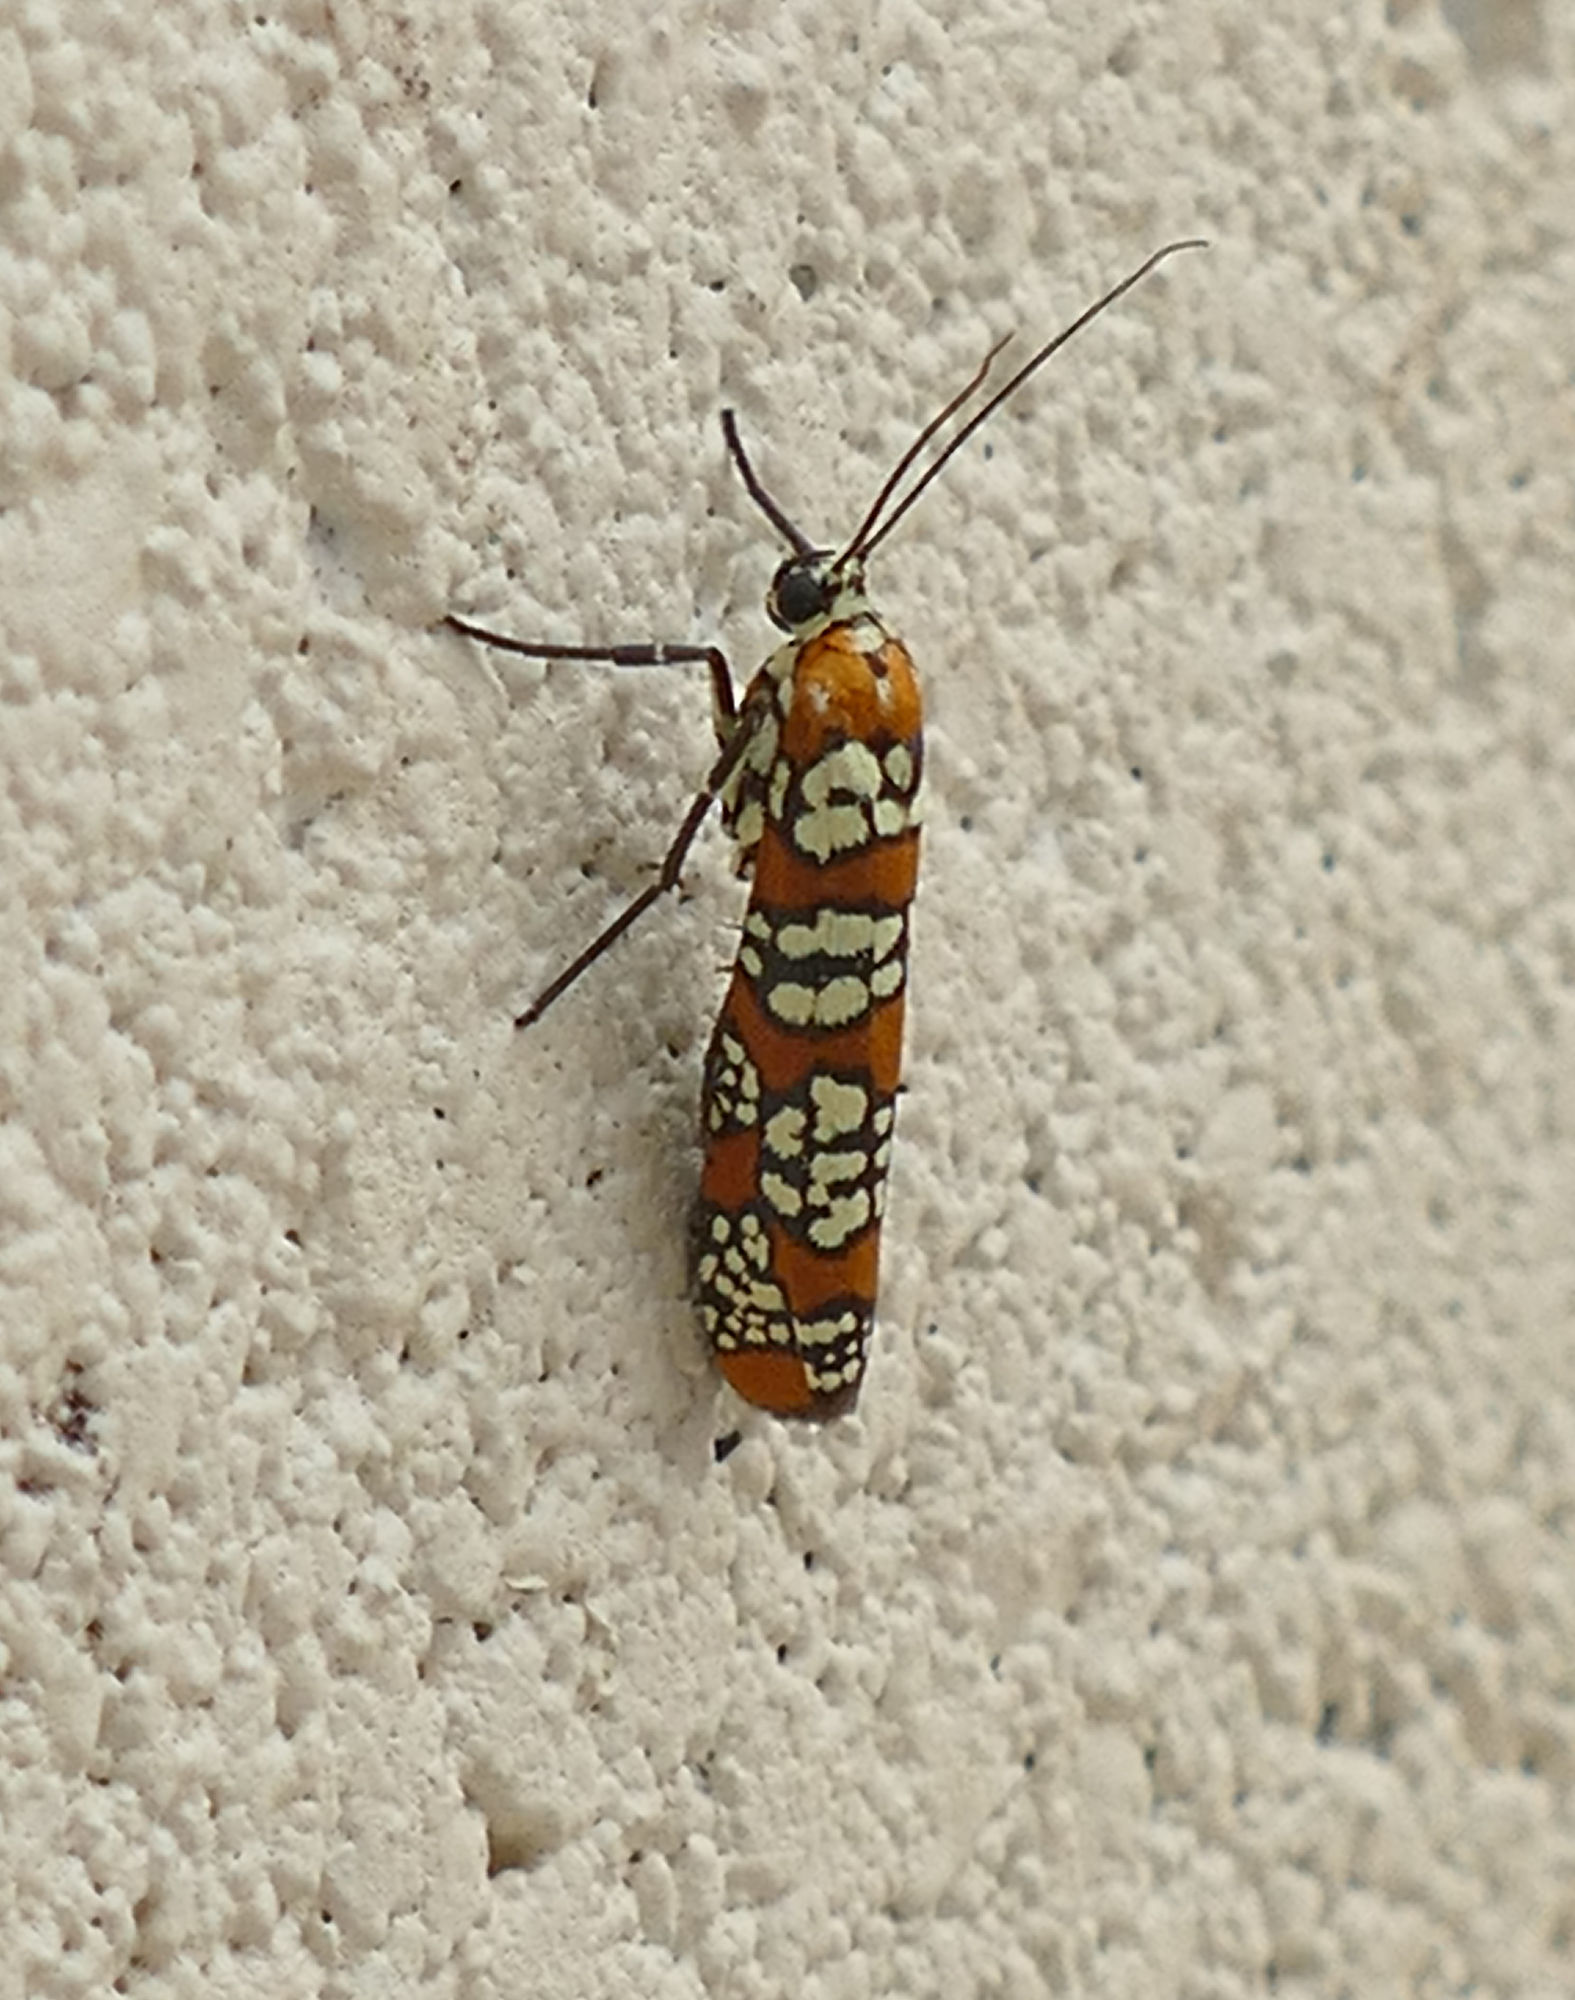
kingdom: Animalia
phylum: Arthropoda
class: Insecta
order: Lepidoptera
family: Attevidae
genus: Atteva
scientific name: Atteva punctella
